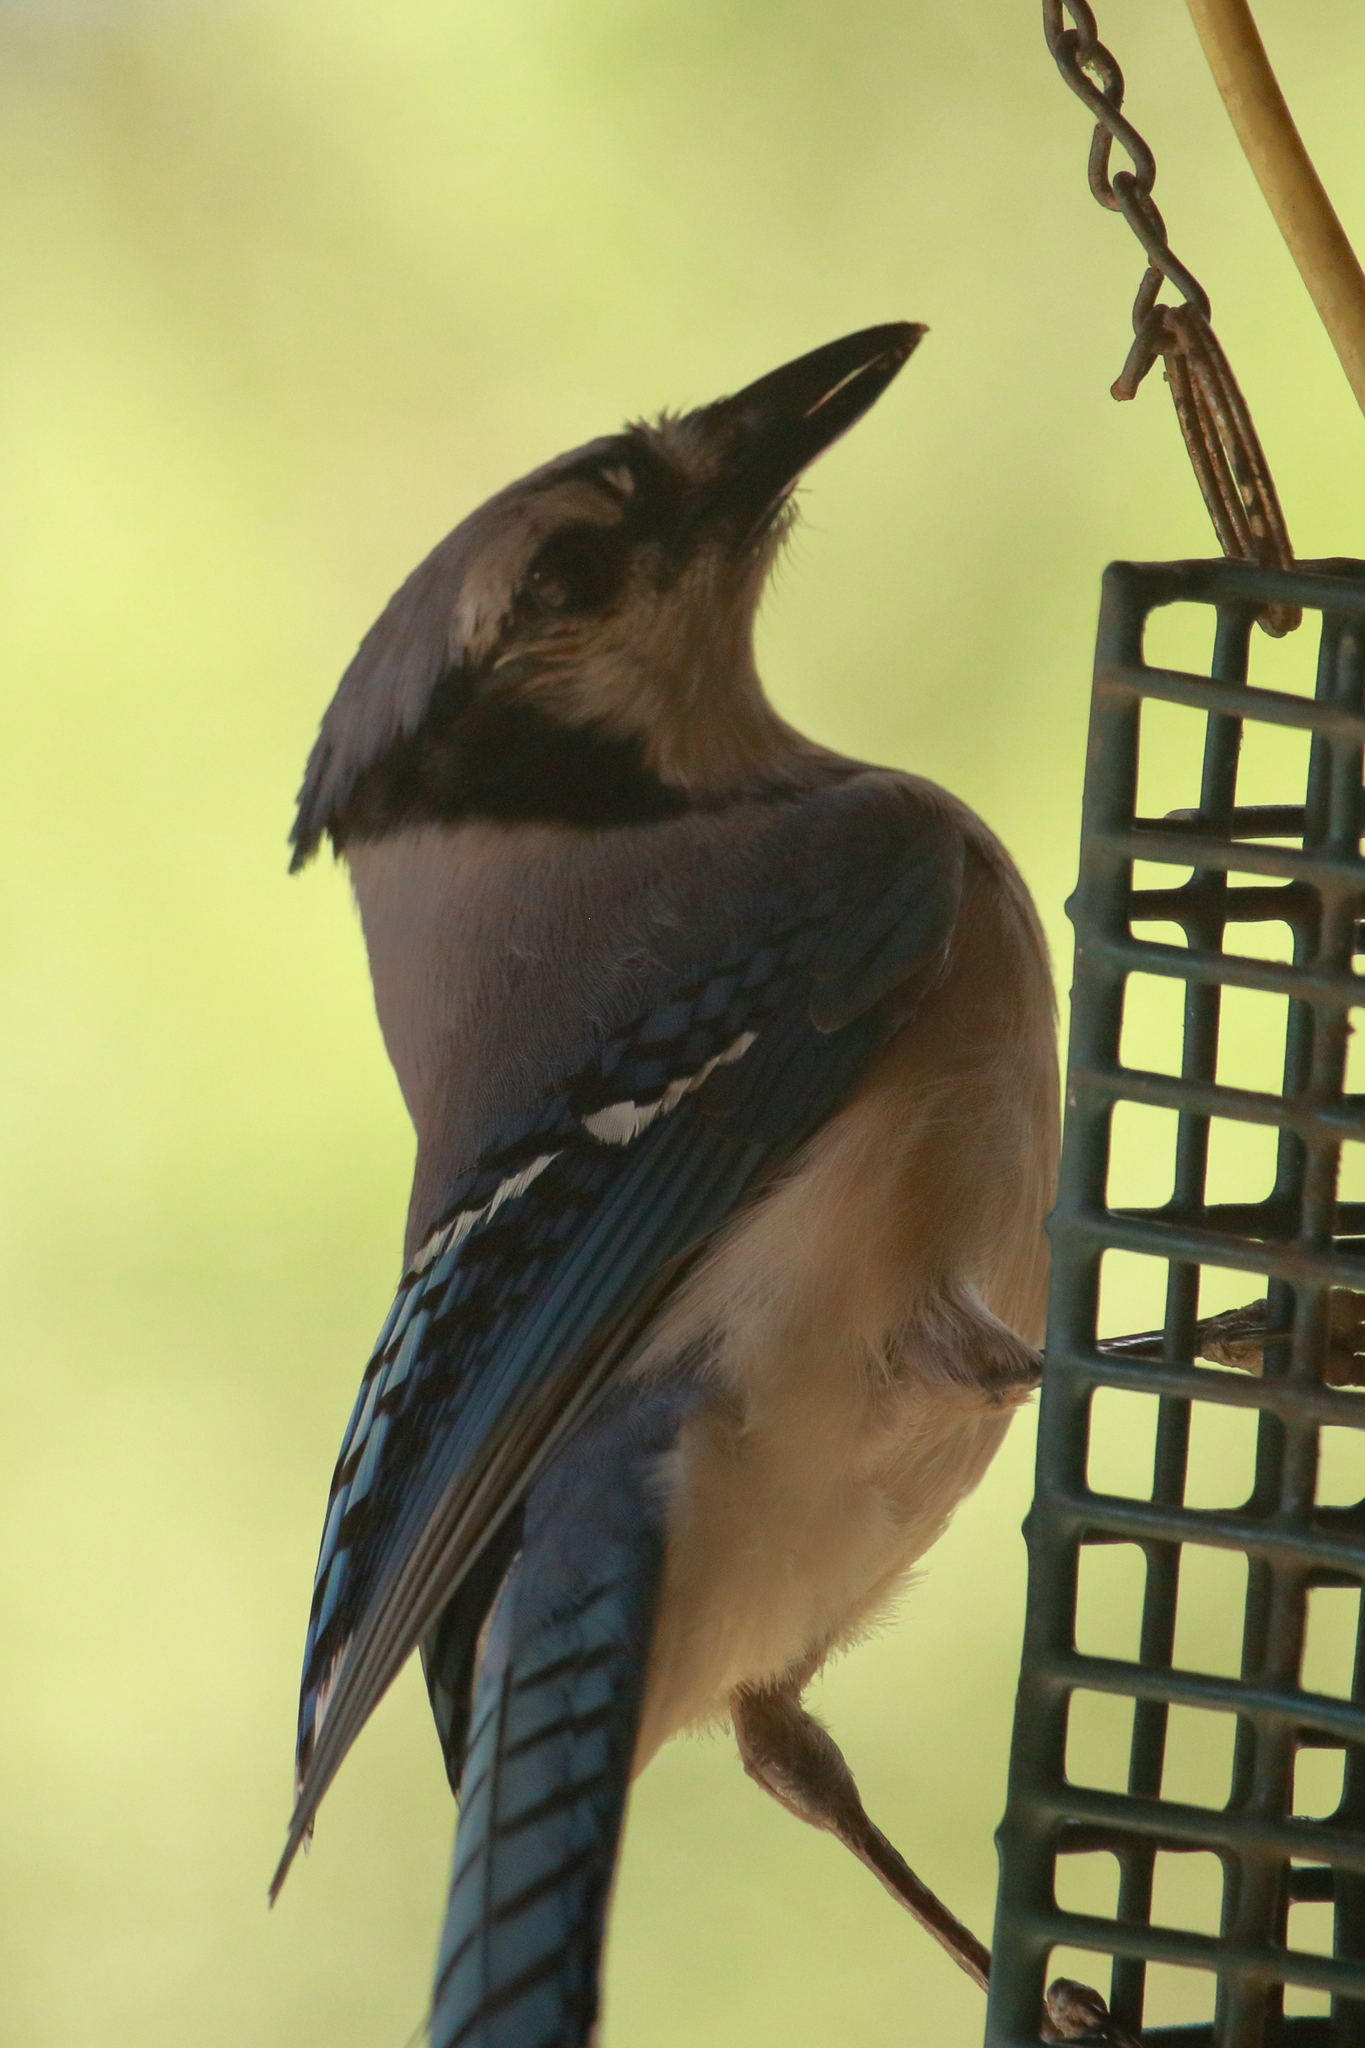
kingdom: Animalia
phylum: Chordata
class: Aves
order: Passeriformes
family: Corvidae
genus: Cyanocitta
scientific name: Cyanocitta cristata
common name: Blue jay
